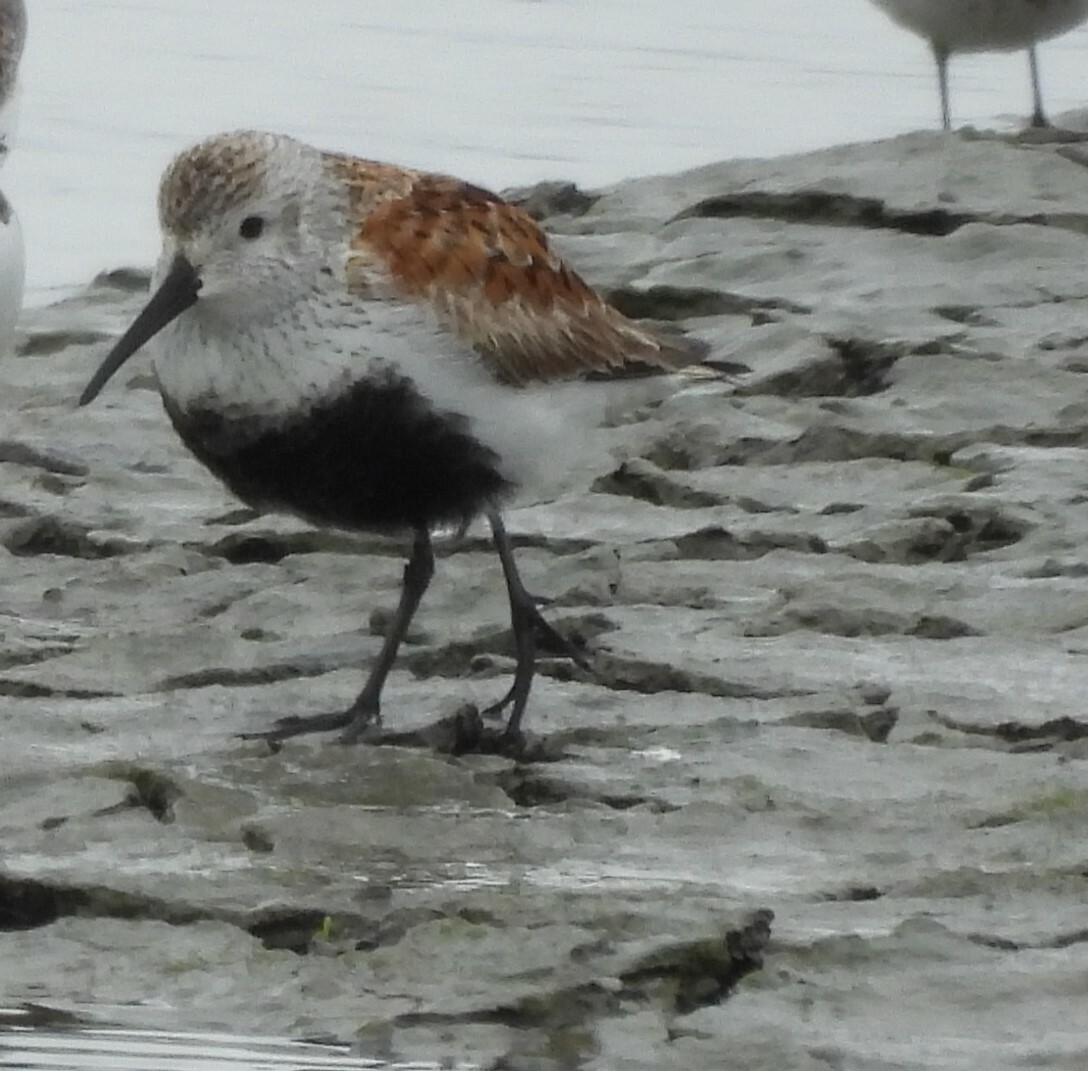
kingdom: Animalia
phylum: Chordata
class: Aves
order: Charadriiformes
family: Scolopacidae
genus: Calidris
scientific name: Calidris alpina
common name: Dunlin
